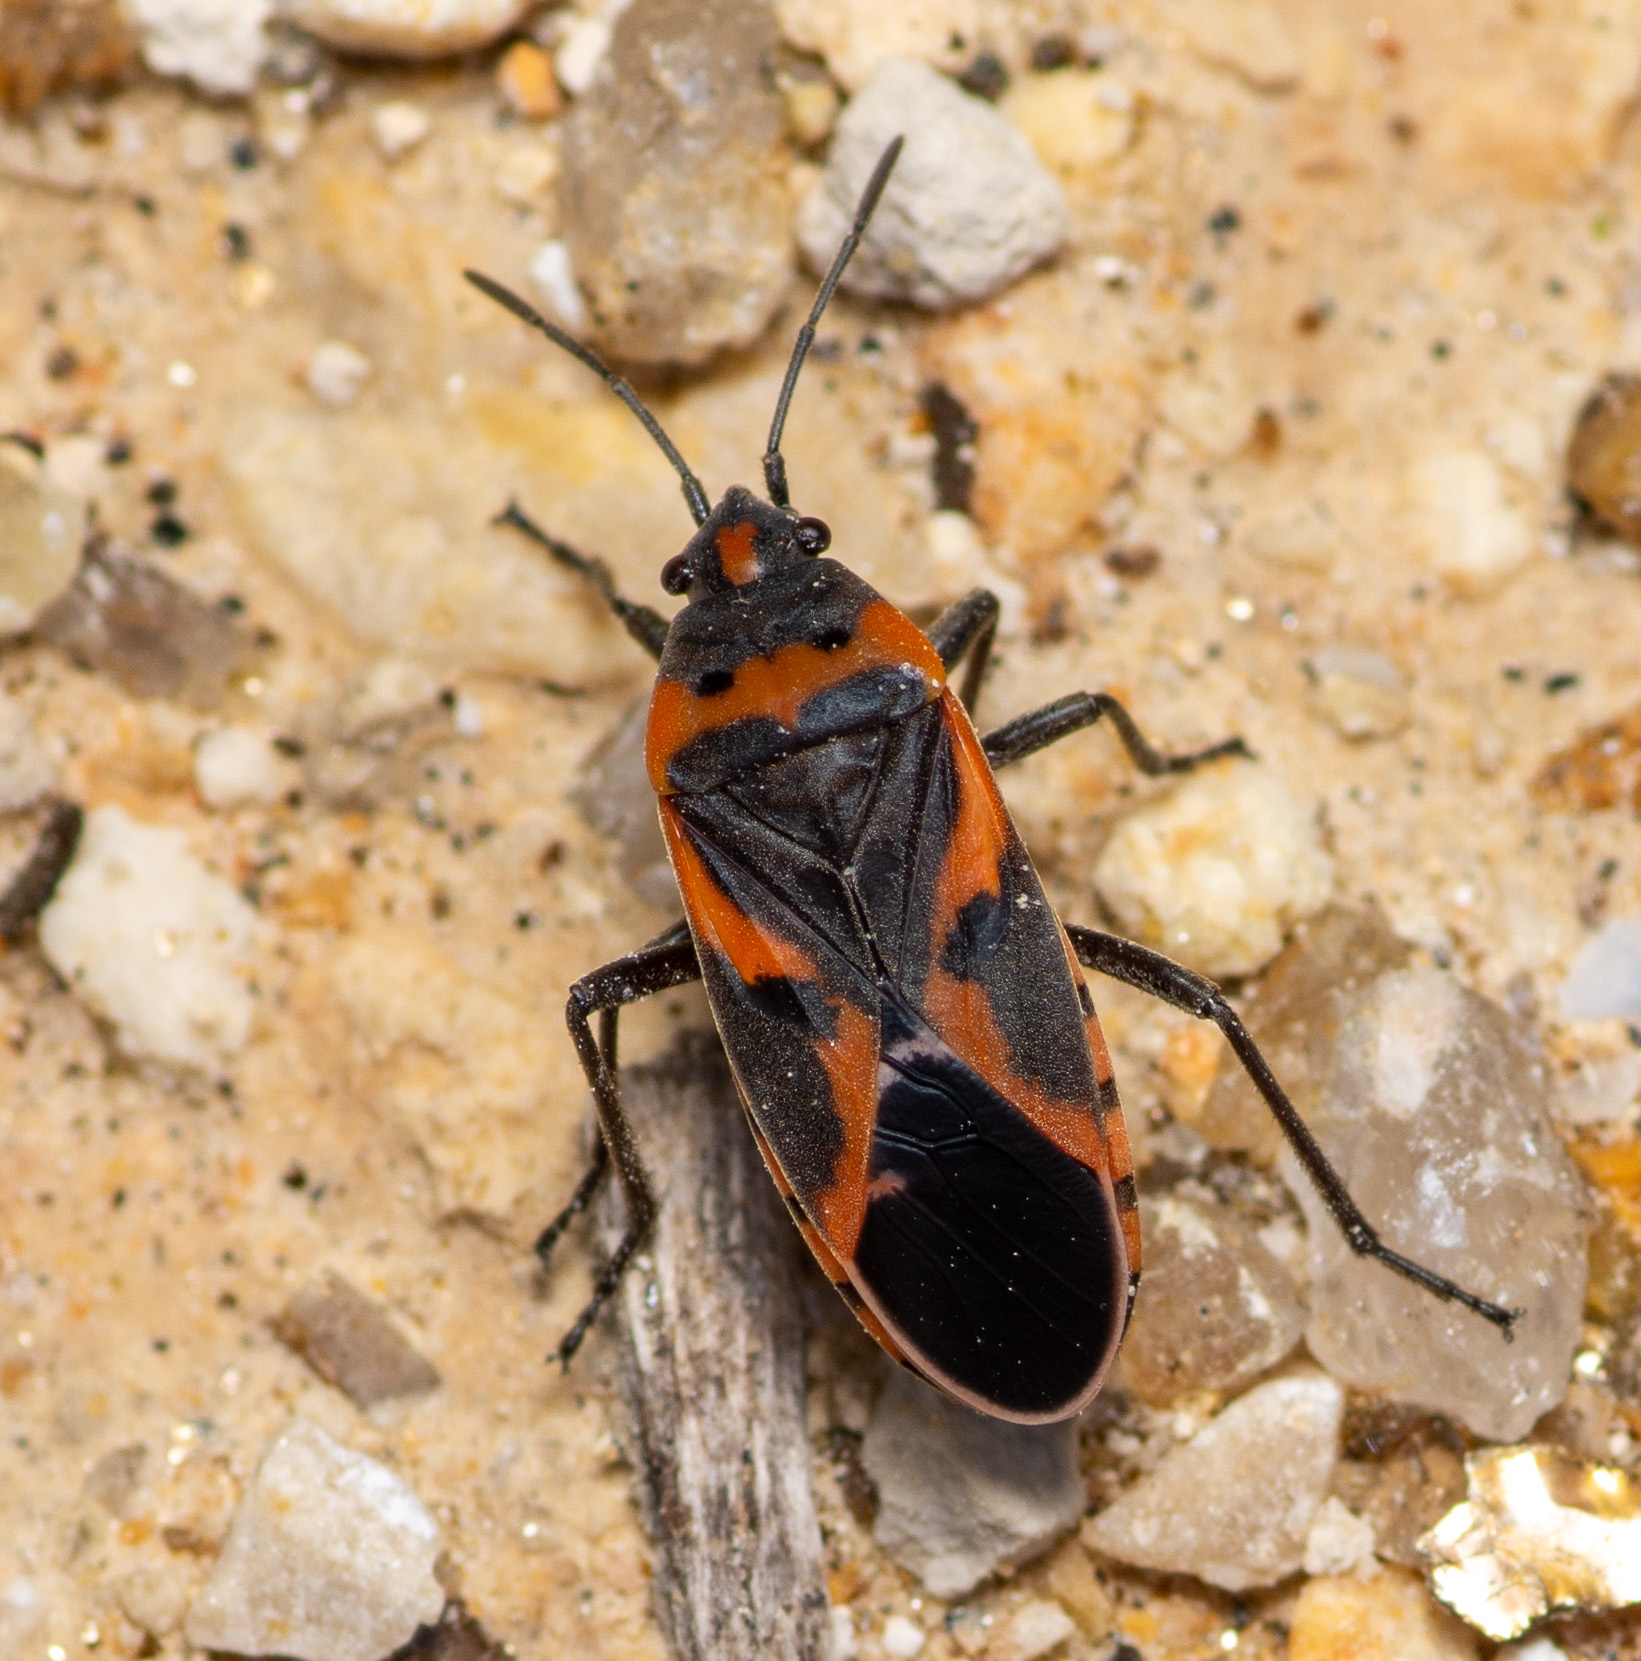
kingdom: Animalia
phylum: Arthropoda
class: Insecta
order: Hemiptera
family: Lygaeidae
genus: Lygaeus
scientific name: Lygaeus kalmii
